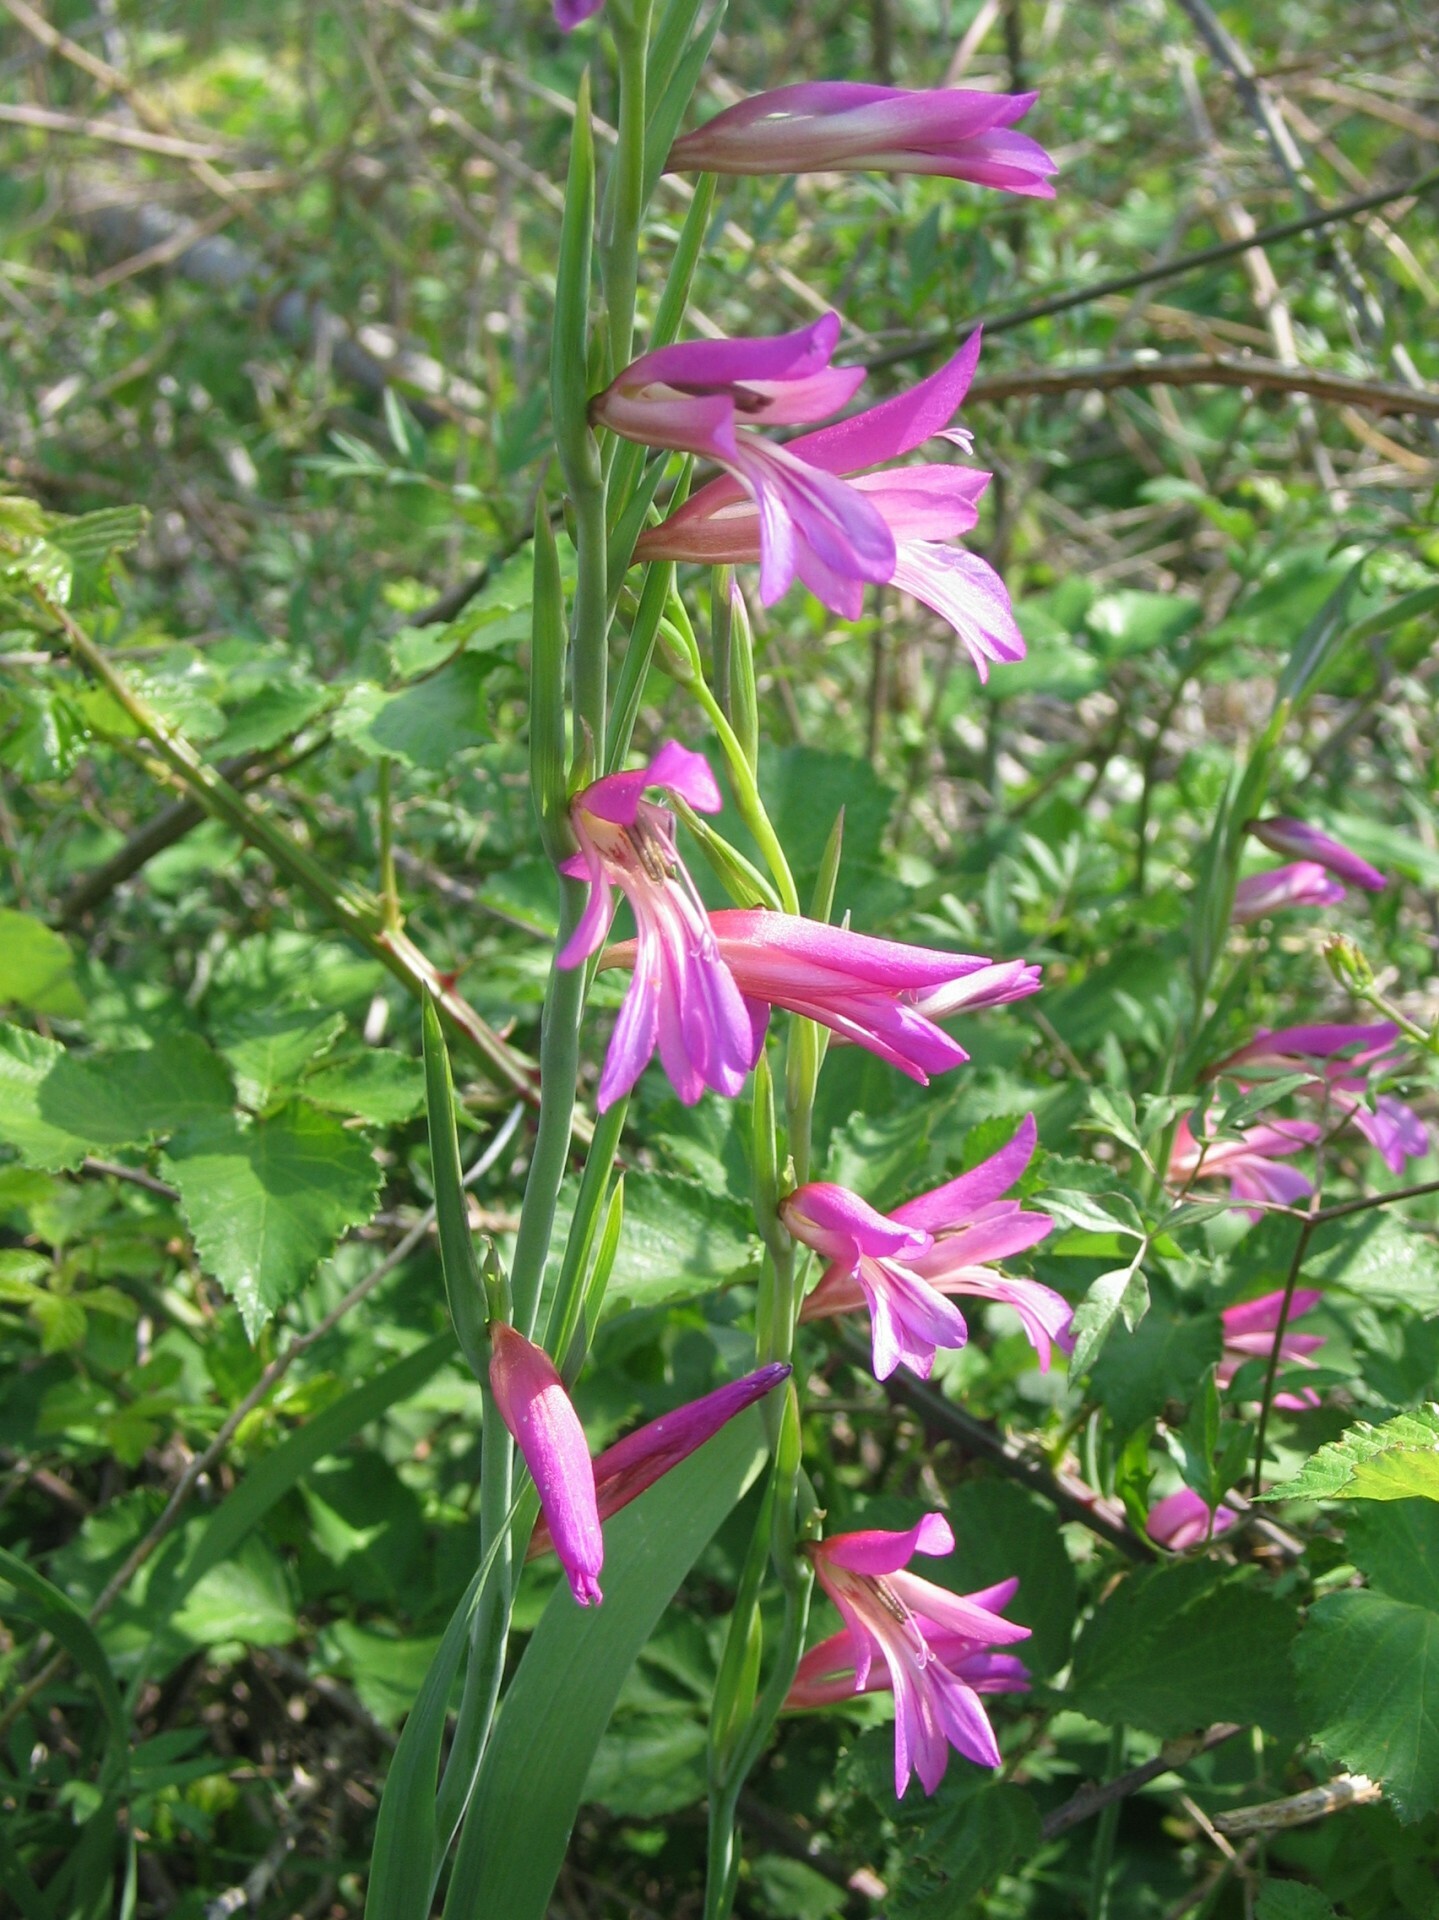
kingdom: Plantae
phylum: Tracheophyta
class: Liliopsida
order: Asparagales
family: Iridaceae
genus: Gladiolus
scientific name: Gladiolus italicus
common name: Field gladiolus
